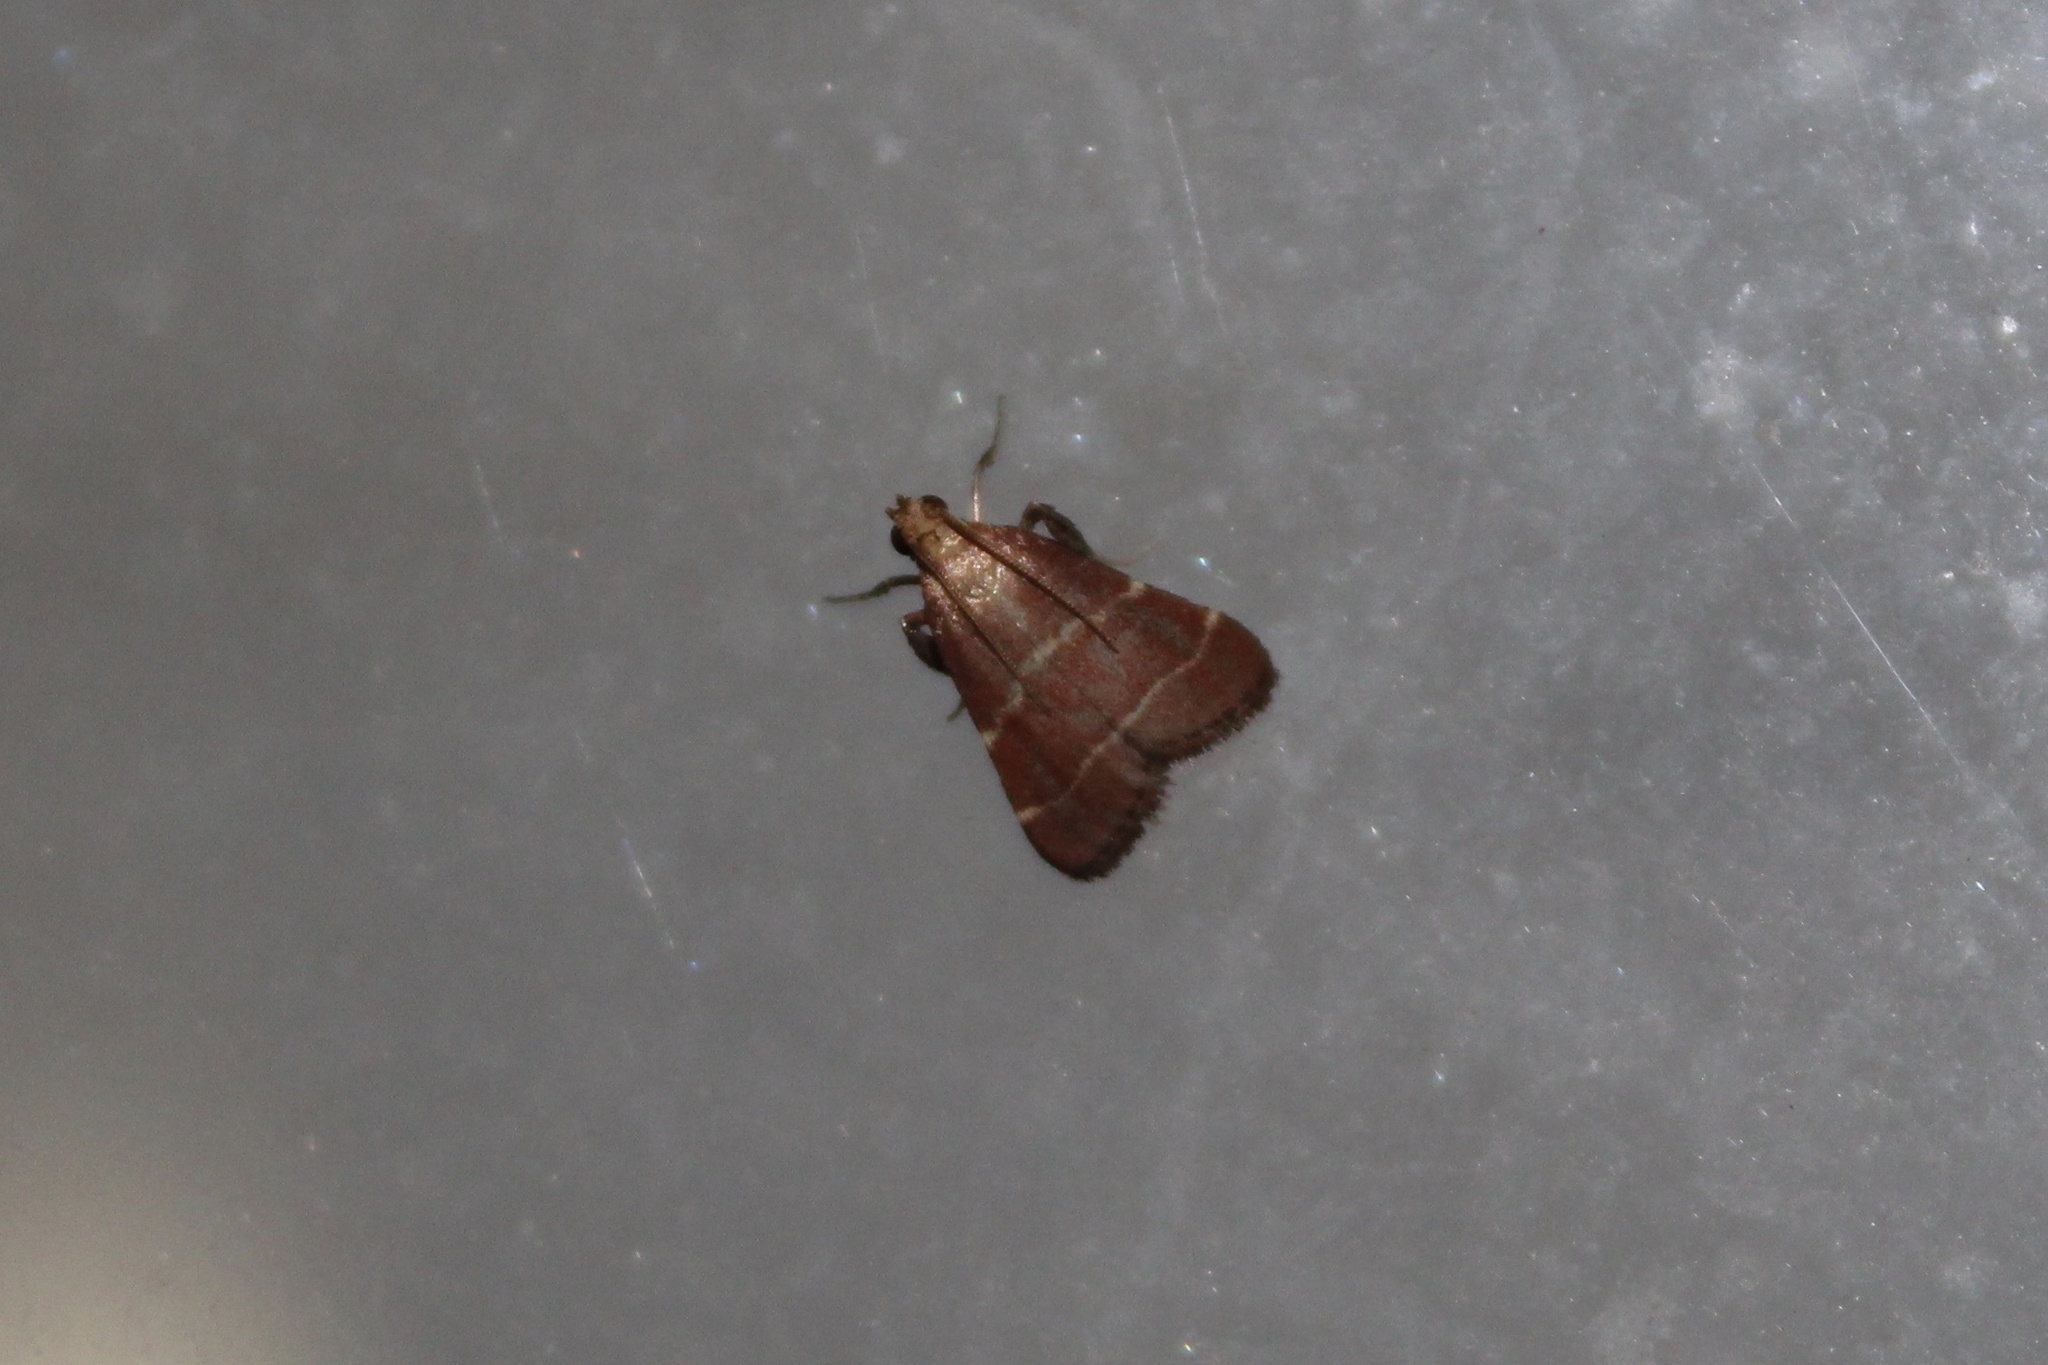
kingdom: Animalia
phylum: Arthropoda
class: Insecta
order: Lepidoptera
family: Pyralidae
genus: Arta
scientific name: Arta statalis
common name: Posturing arta moth
